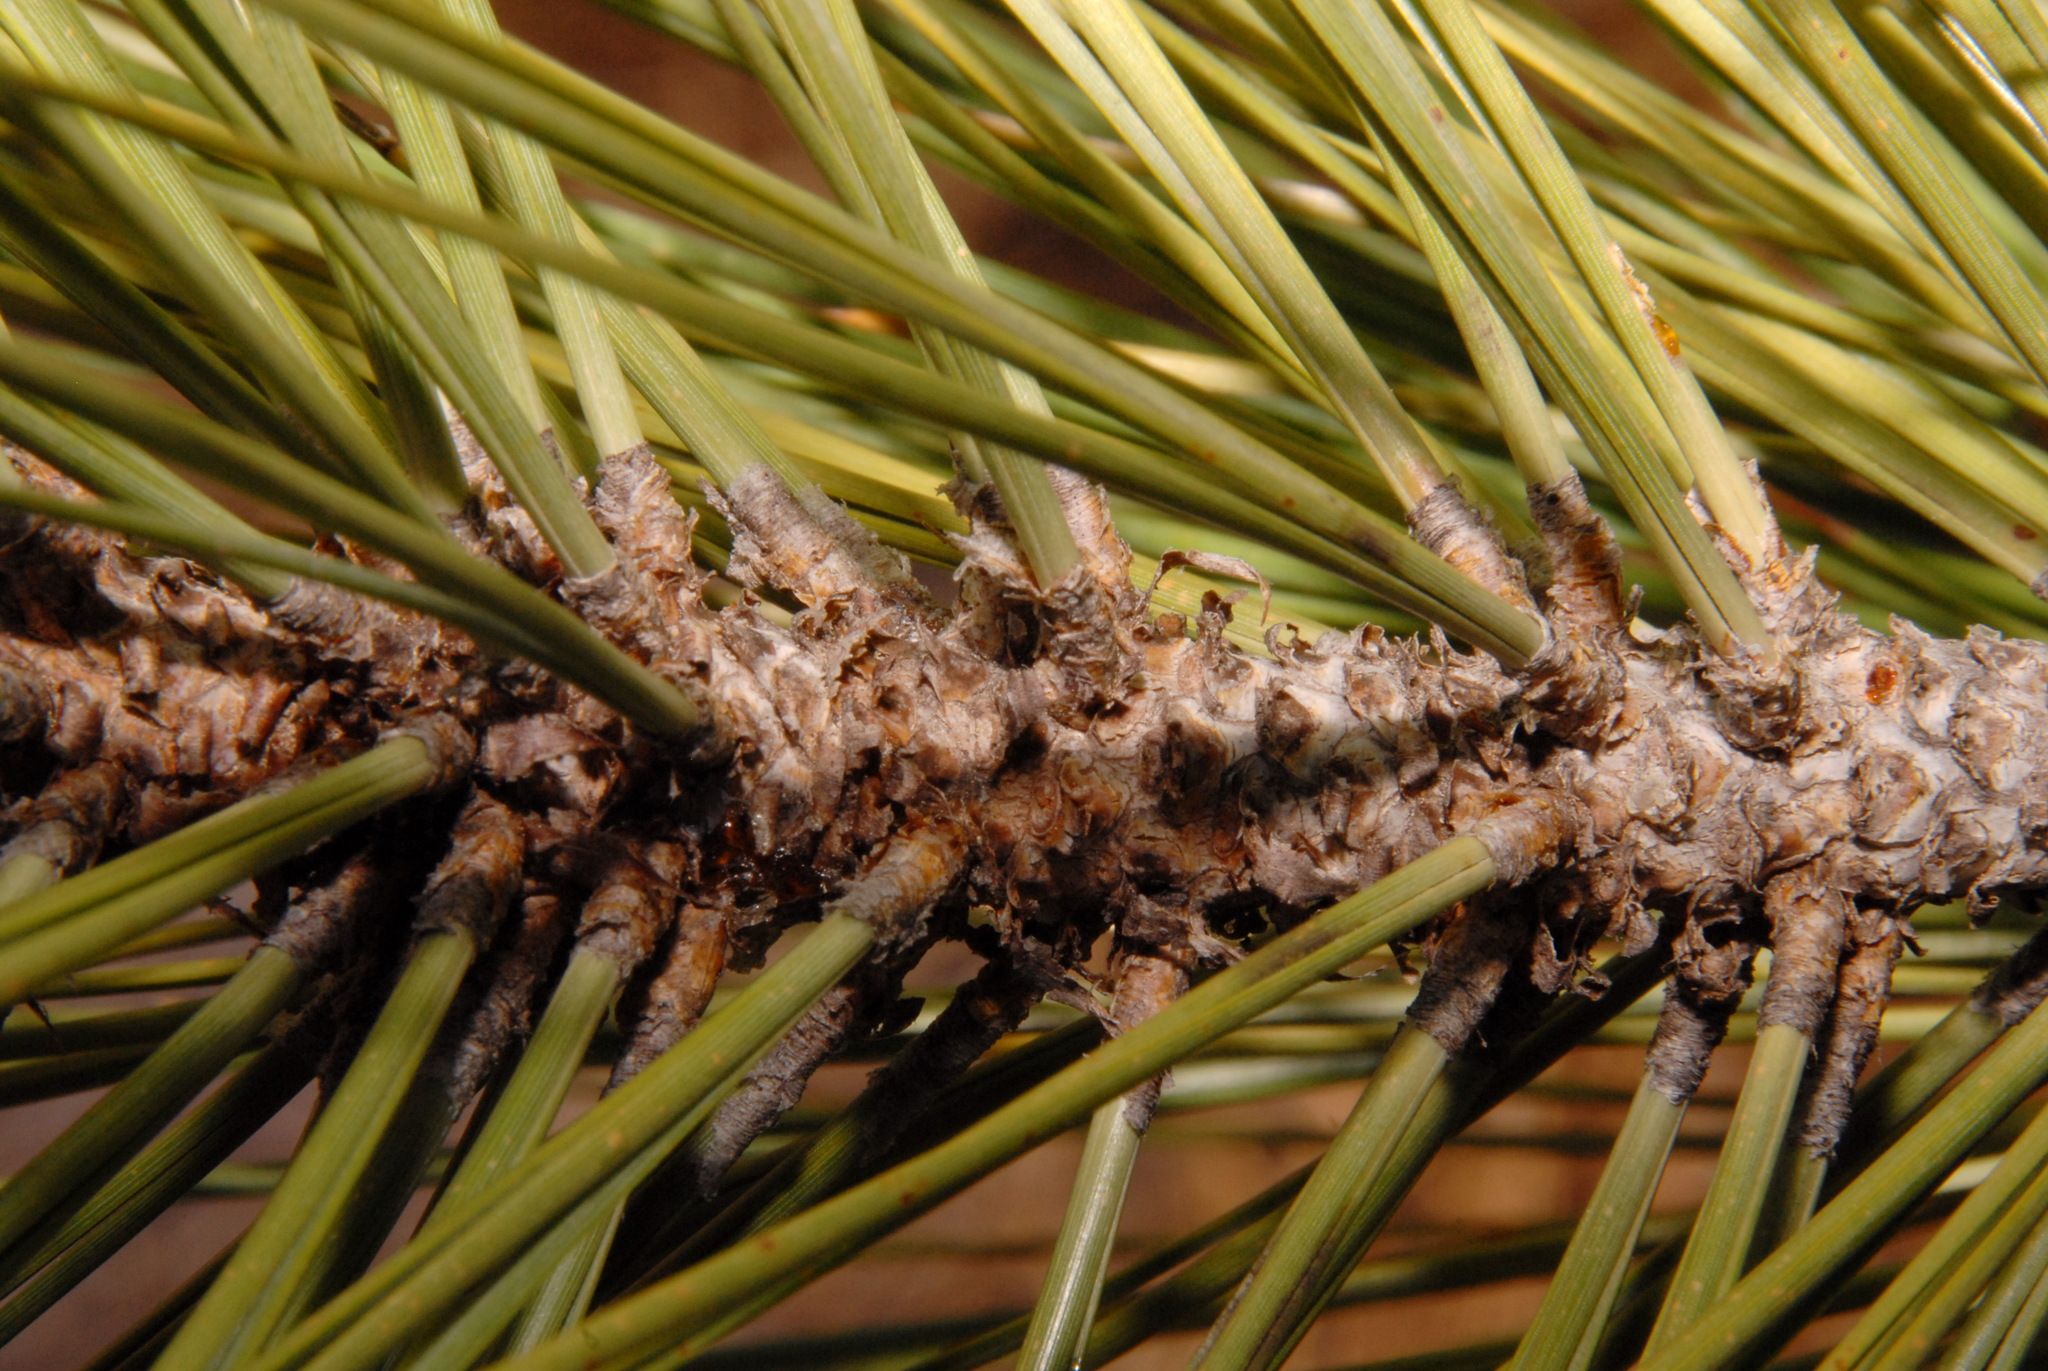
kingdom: Plantae
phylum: Tracheophyta
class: Pinopsida
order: Pinales
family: Pinaceae
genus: Pinus
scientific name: Pinus jeffreyi
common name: Jeffrey pine
